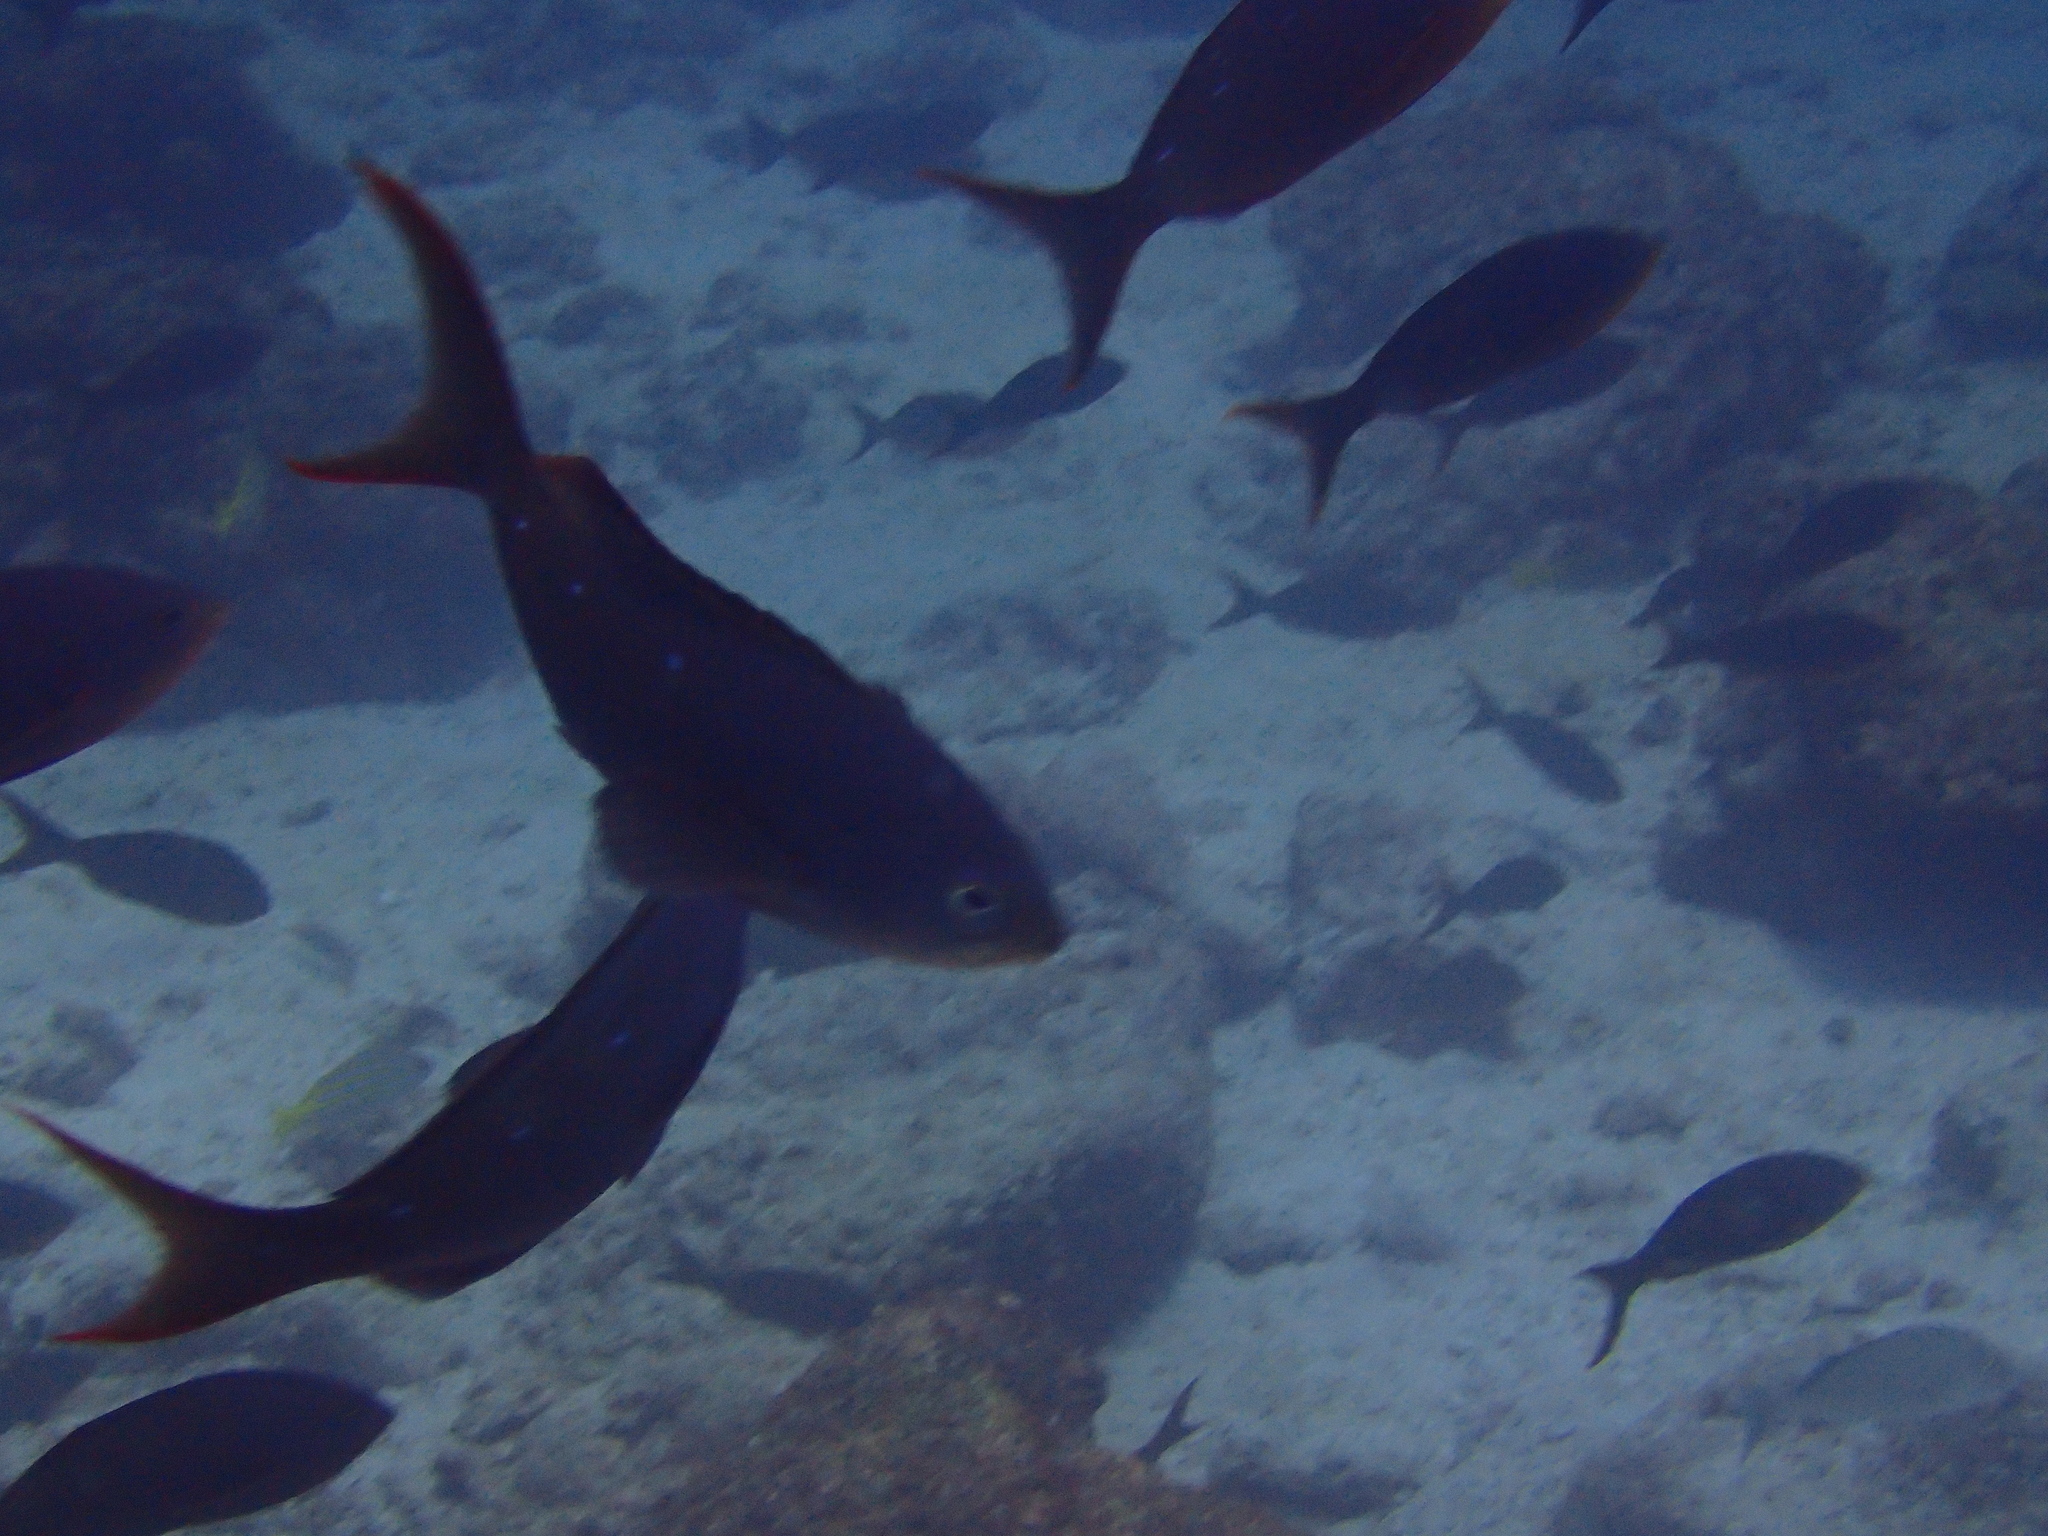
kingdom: Animalia
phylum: Chordata
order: Perciformes
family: Serranidae
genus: Paranthias
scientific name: Paranthias colonus
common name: Pacific creole-fish
